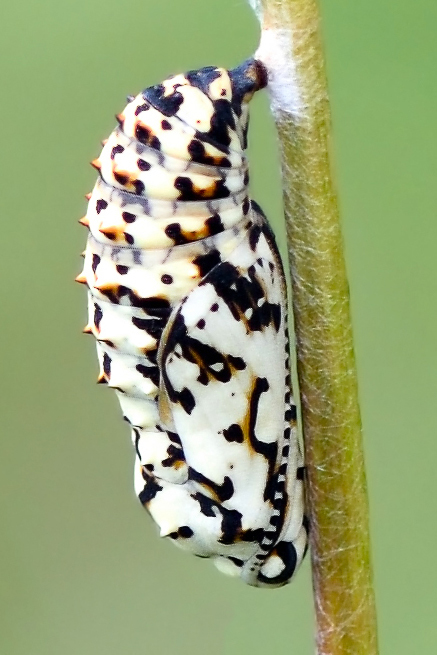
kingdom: Animalia
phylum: Arthropoda
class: Insecta
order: Lepidoptera
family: Nymphalidae
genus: Melitaea
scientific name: Melitaea didyma
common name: Spotted fritillary
